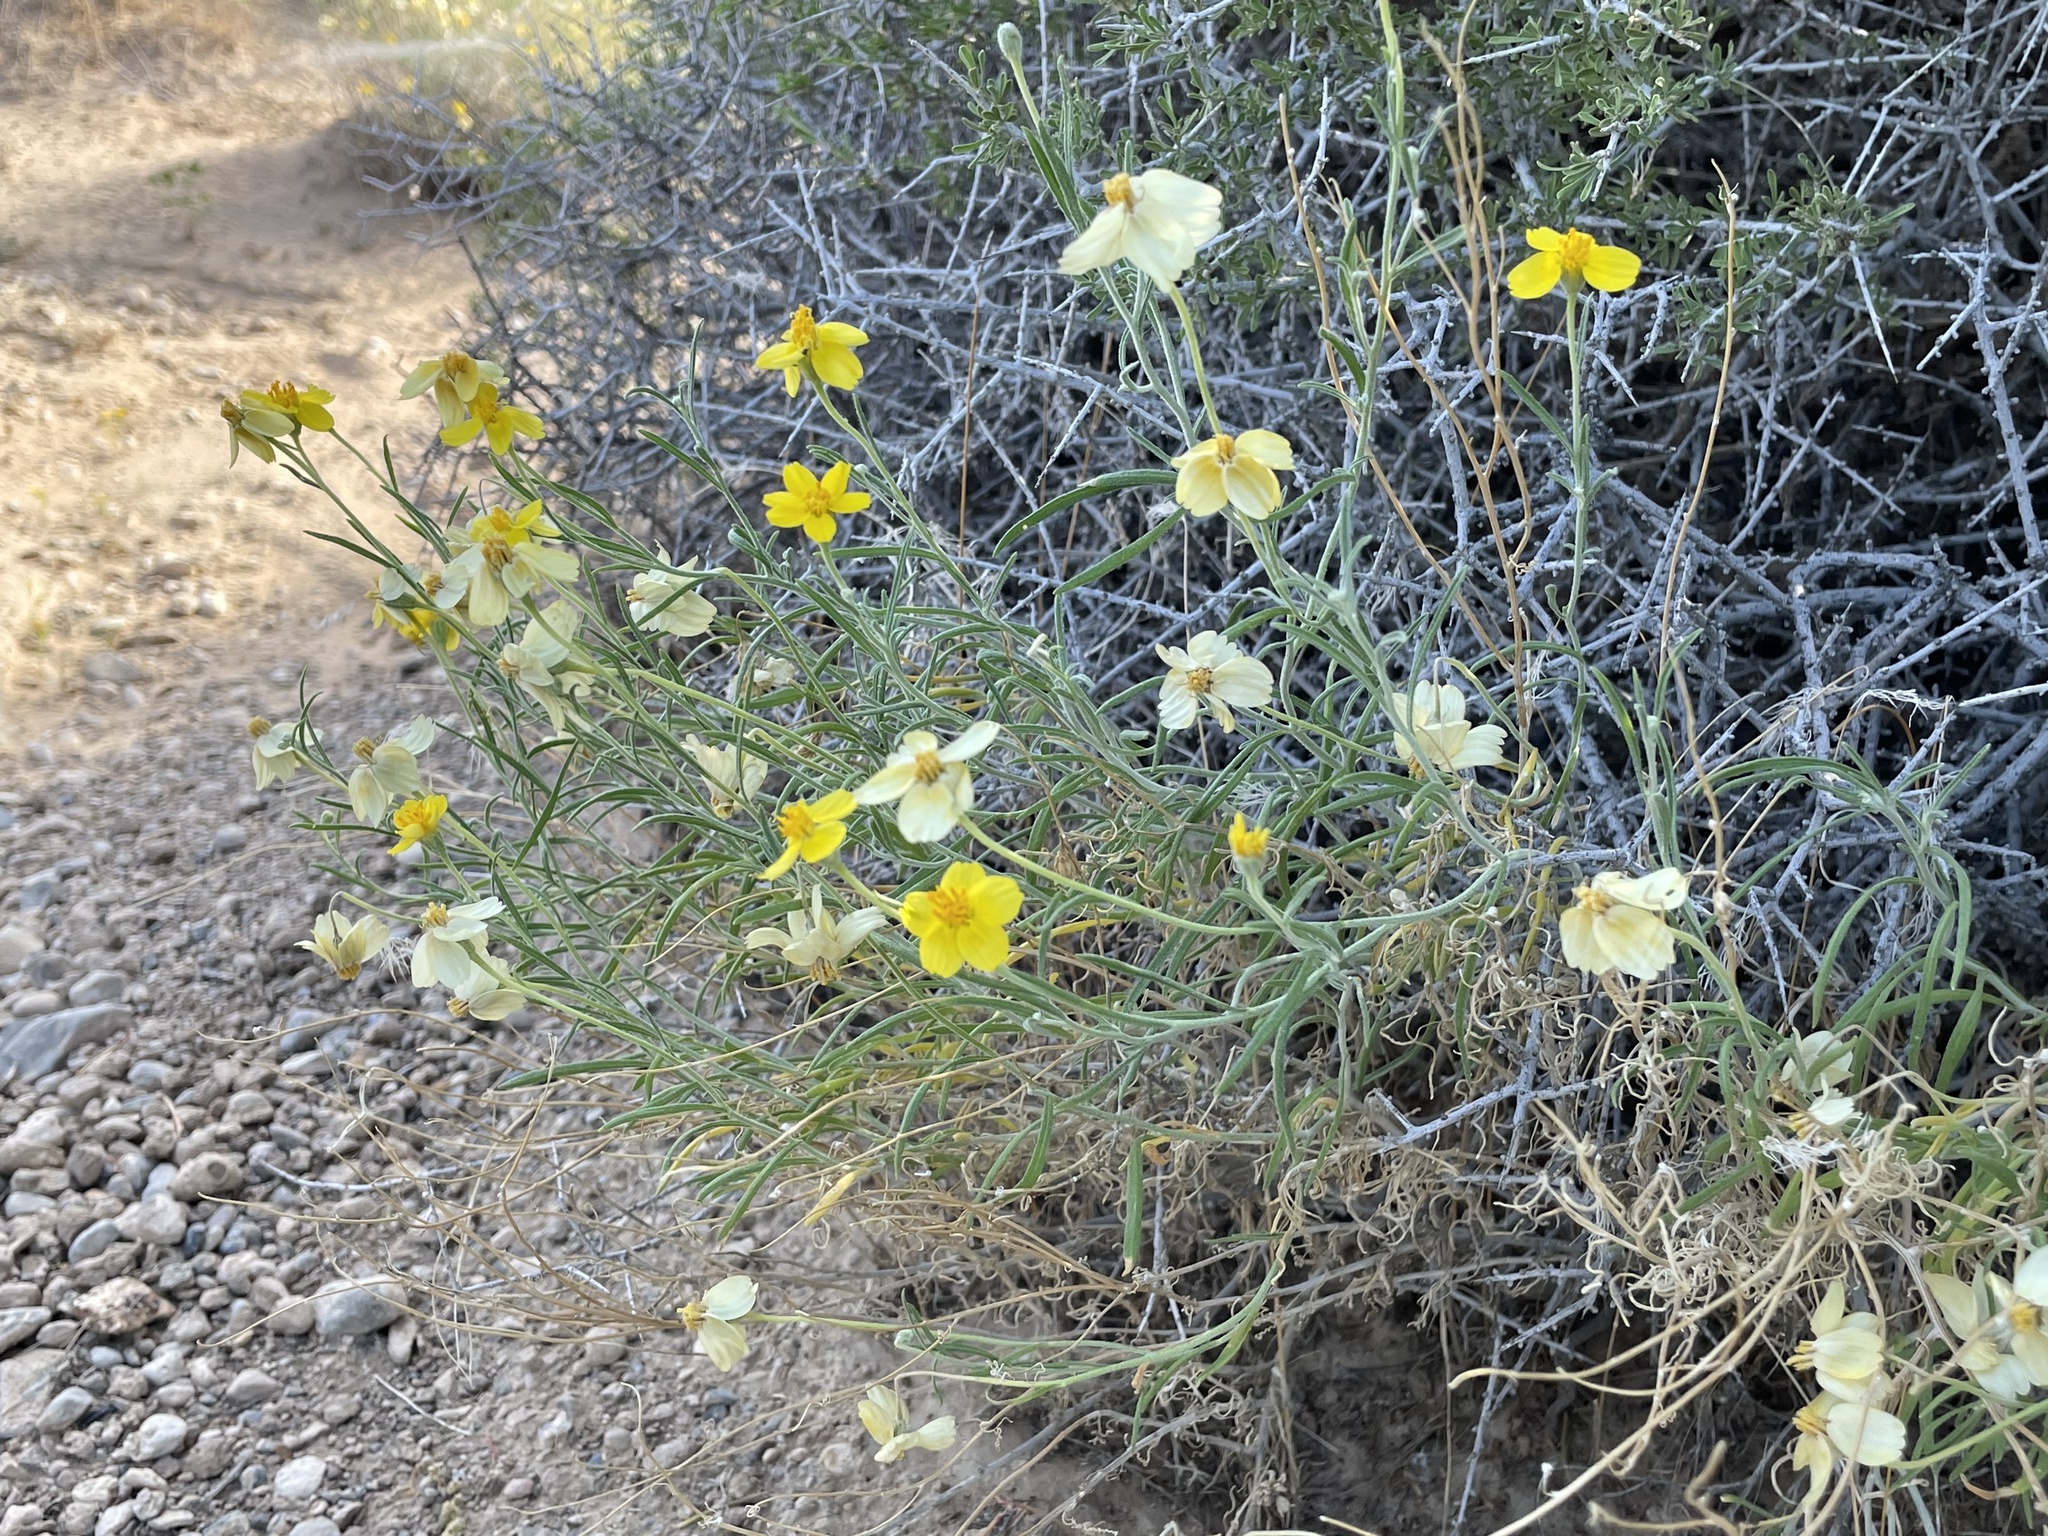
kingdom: Plantae
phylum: Tracheophyta
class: Magnoliopsida
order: Asterales
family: Asteraceae
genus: Psilostrophe
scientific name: Psilostrophe cooperi
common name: White-stem paper-flower
